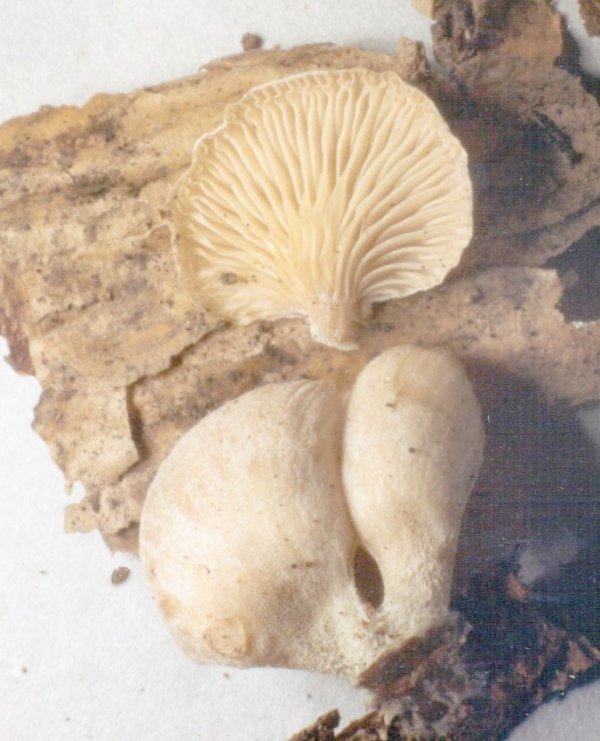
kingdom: Fungi
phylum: Basidiomycota
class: Agaricomycetes
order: Agaricales
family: Mycenaceae
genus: Panellus
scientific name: Panellus mitis
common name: Elastic oysterling
